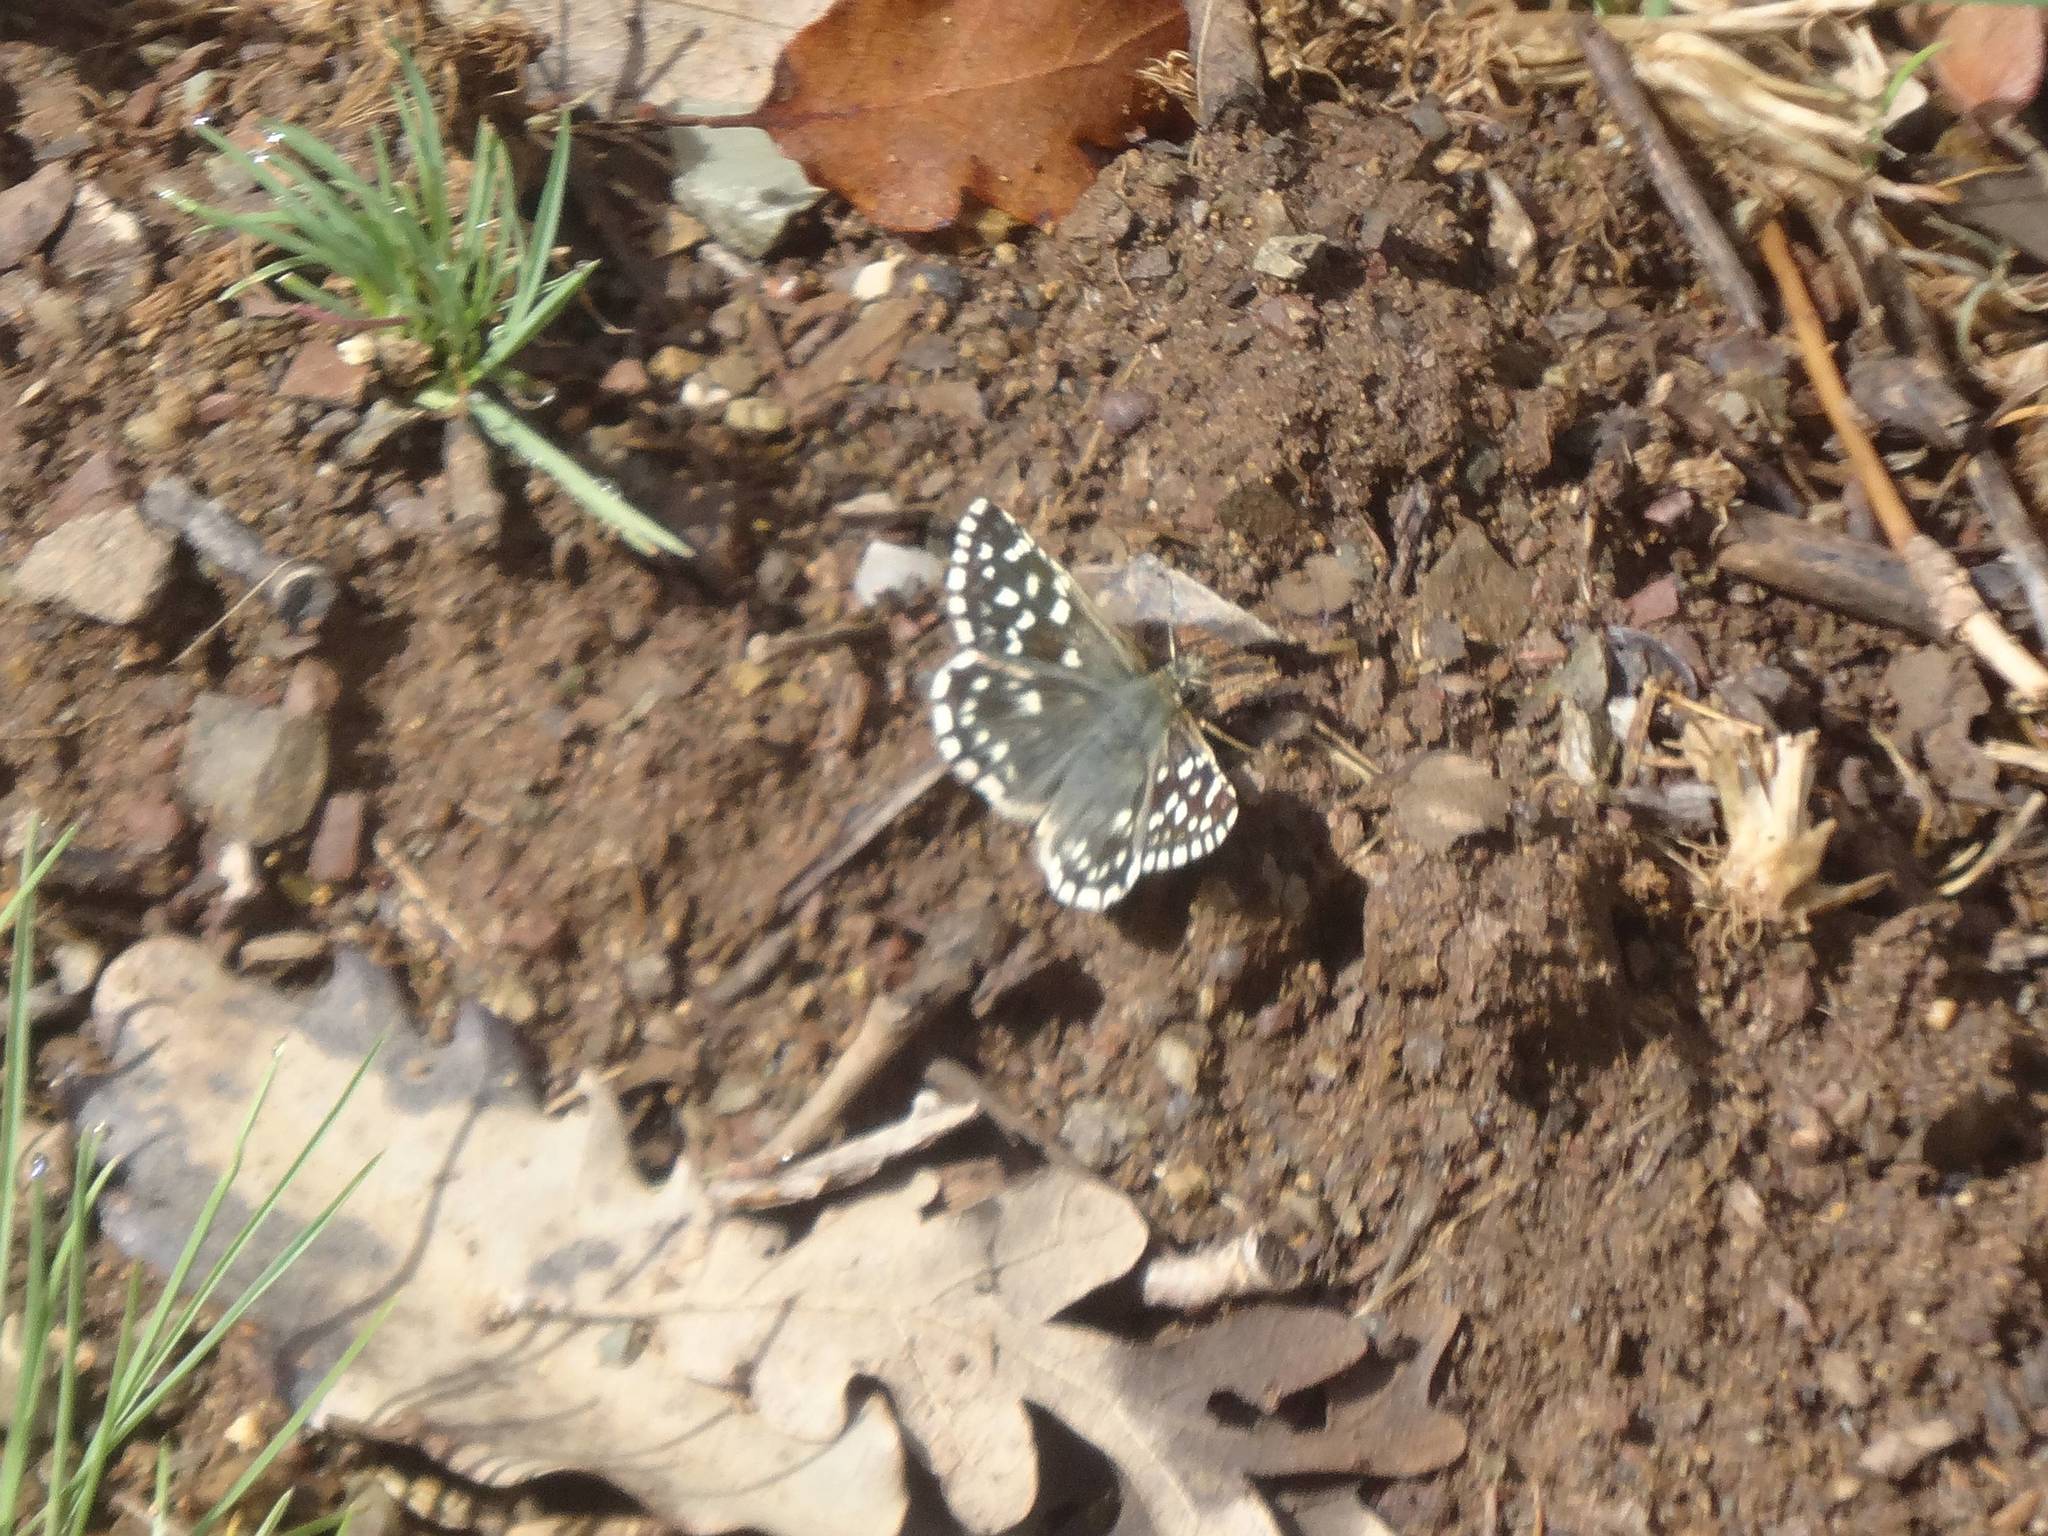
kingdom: Animalia
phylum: Arthropoda
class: Insecta
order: Lepidoptera
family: Hesperiidae
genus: Pyrgus
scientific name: Pyrgus melotis
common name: Aegean skipper
